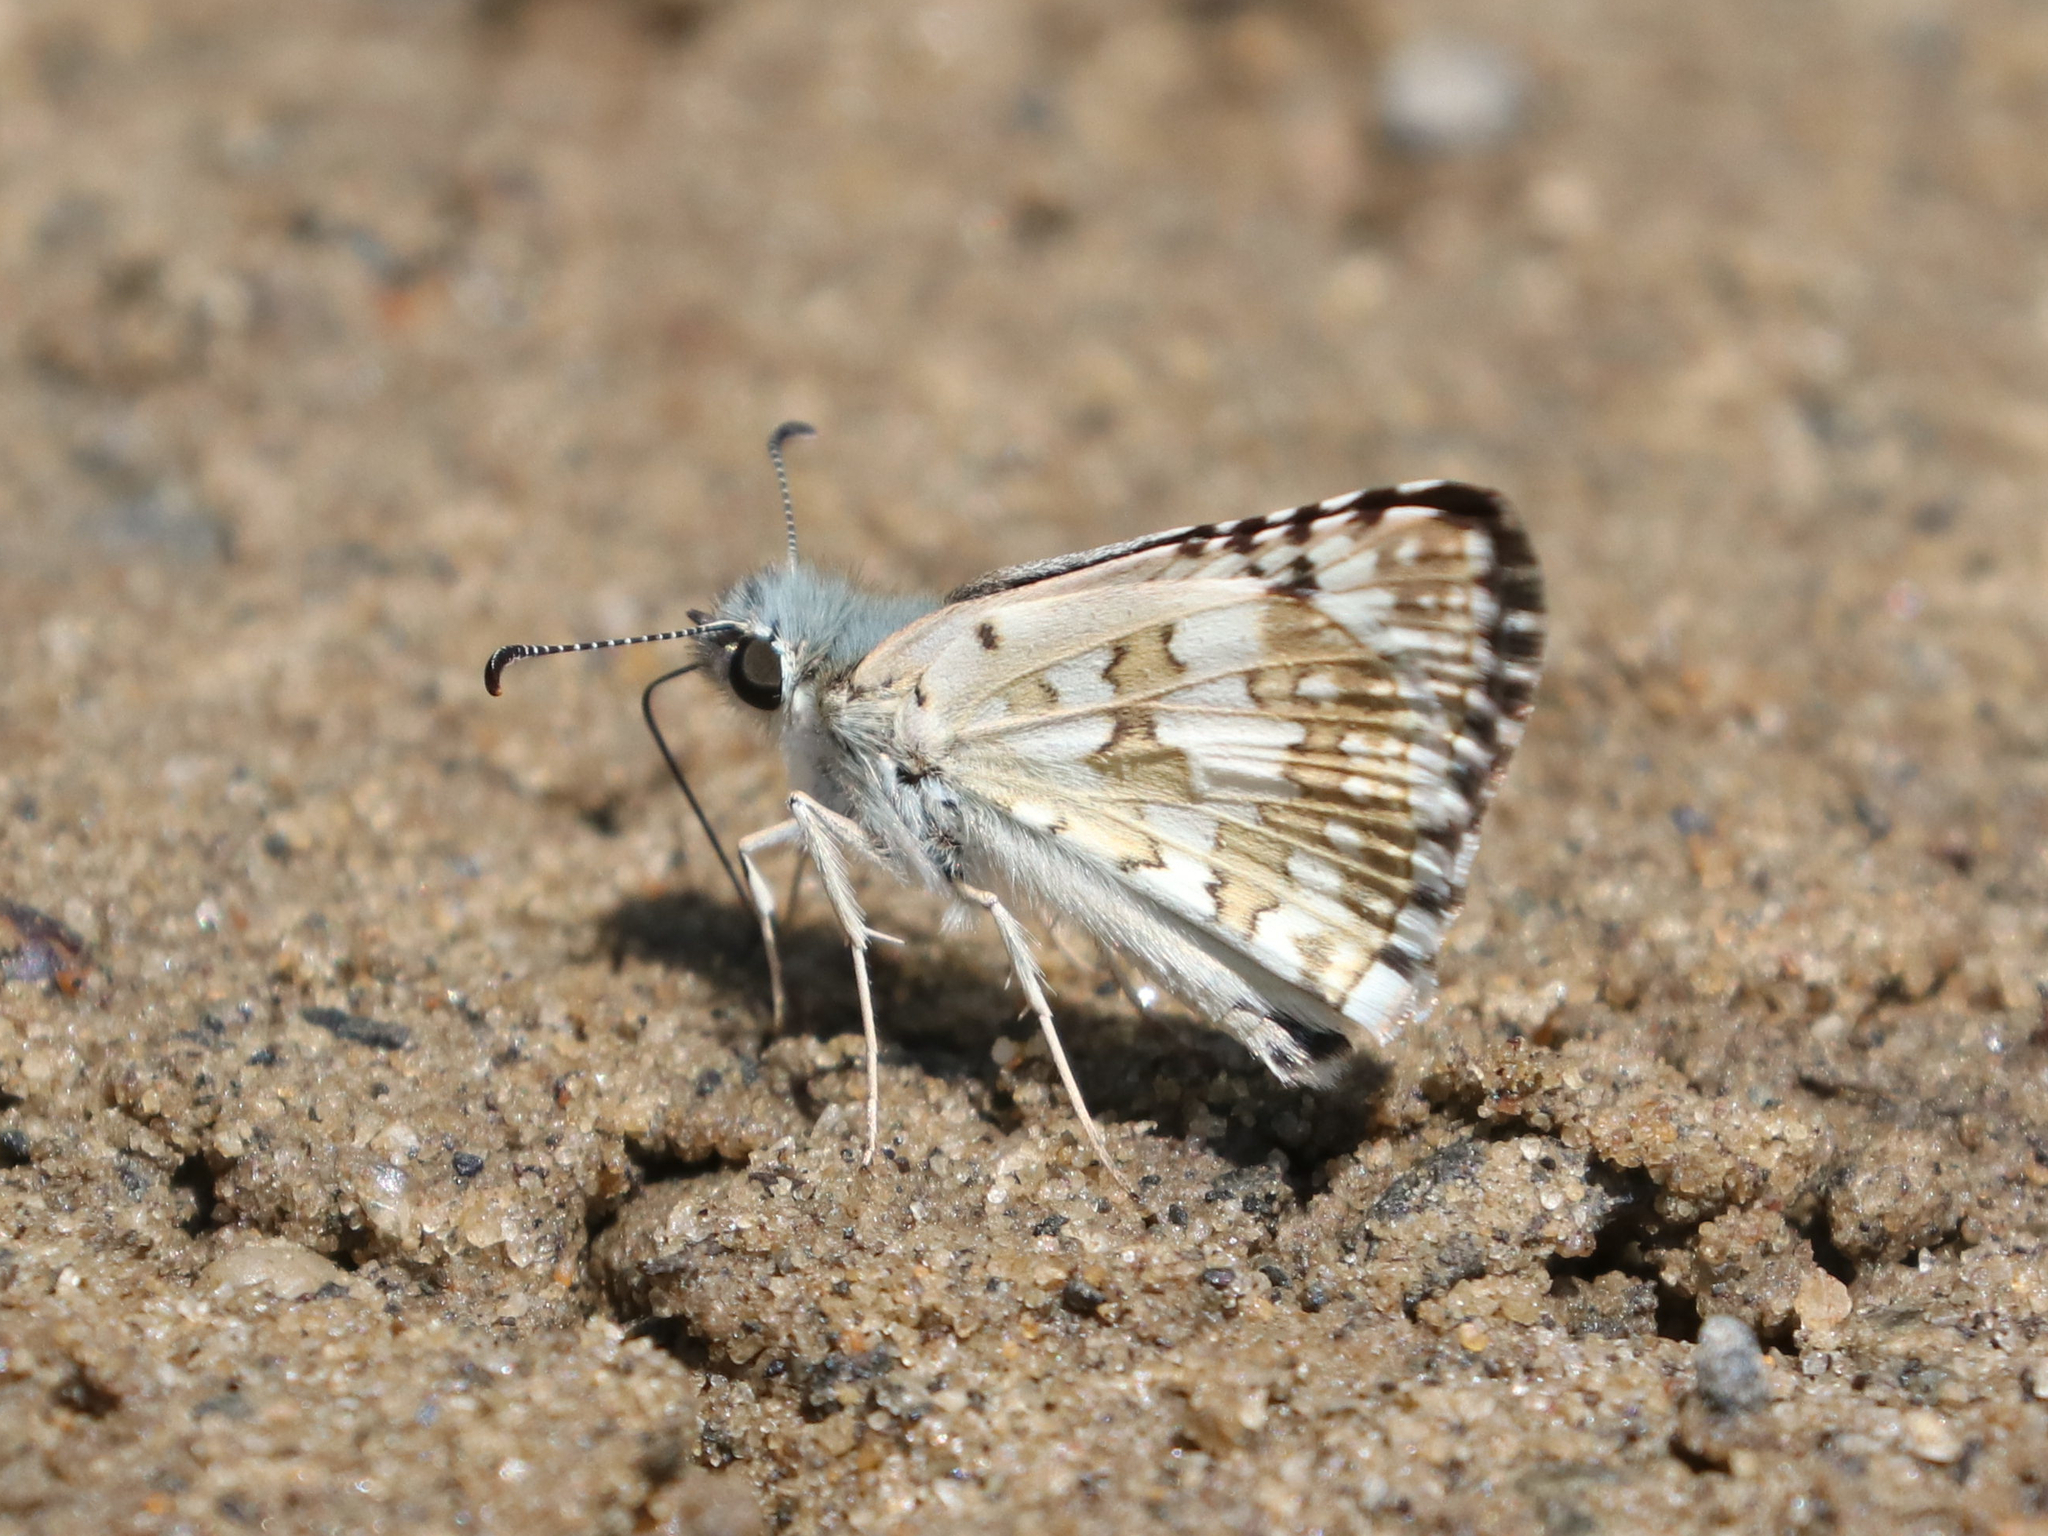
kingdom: Animalia
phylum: Arthropoda
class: Insecta
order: Lepidoptera
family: Hesperiidae
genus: Burnsius
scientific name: Burnsius communis
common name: Common checkered-skipper
